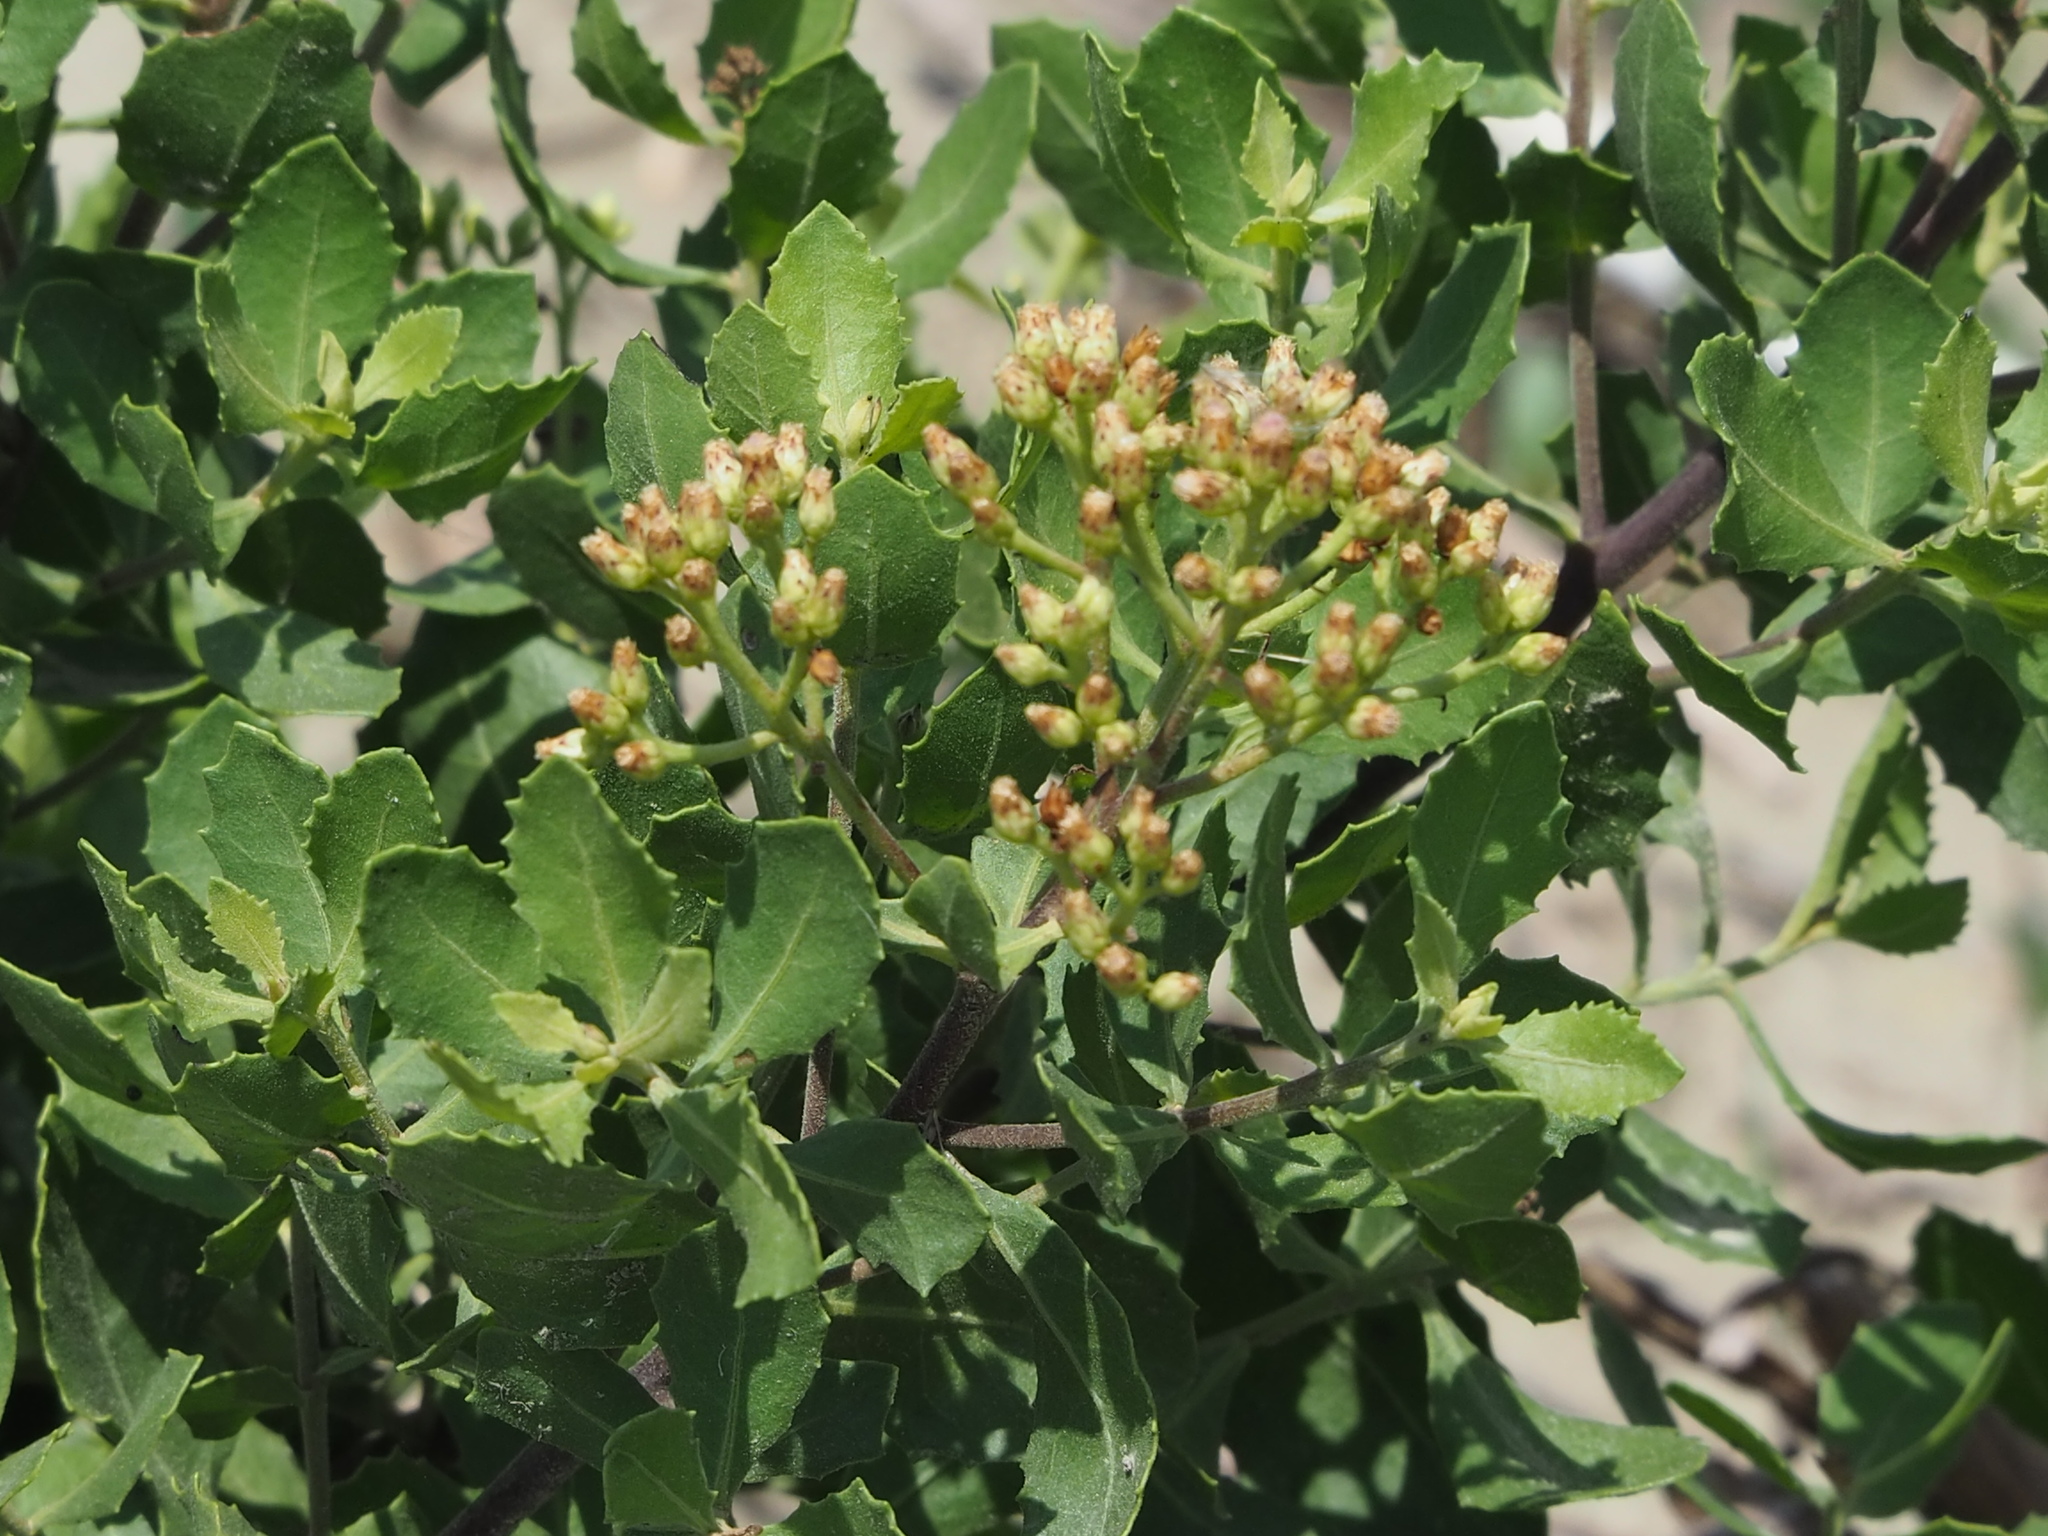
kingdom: Plantae
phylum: Tracheophyta
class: Magnoliopsida
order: Asterales
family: Asteraceae
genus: Pluchea
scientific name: Pluchea indica
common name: Indian fleabane
